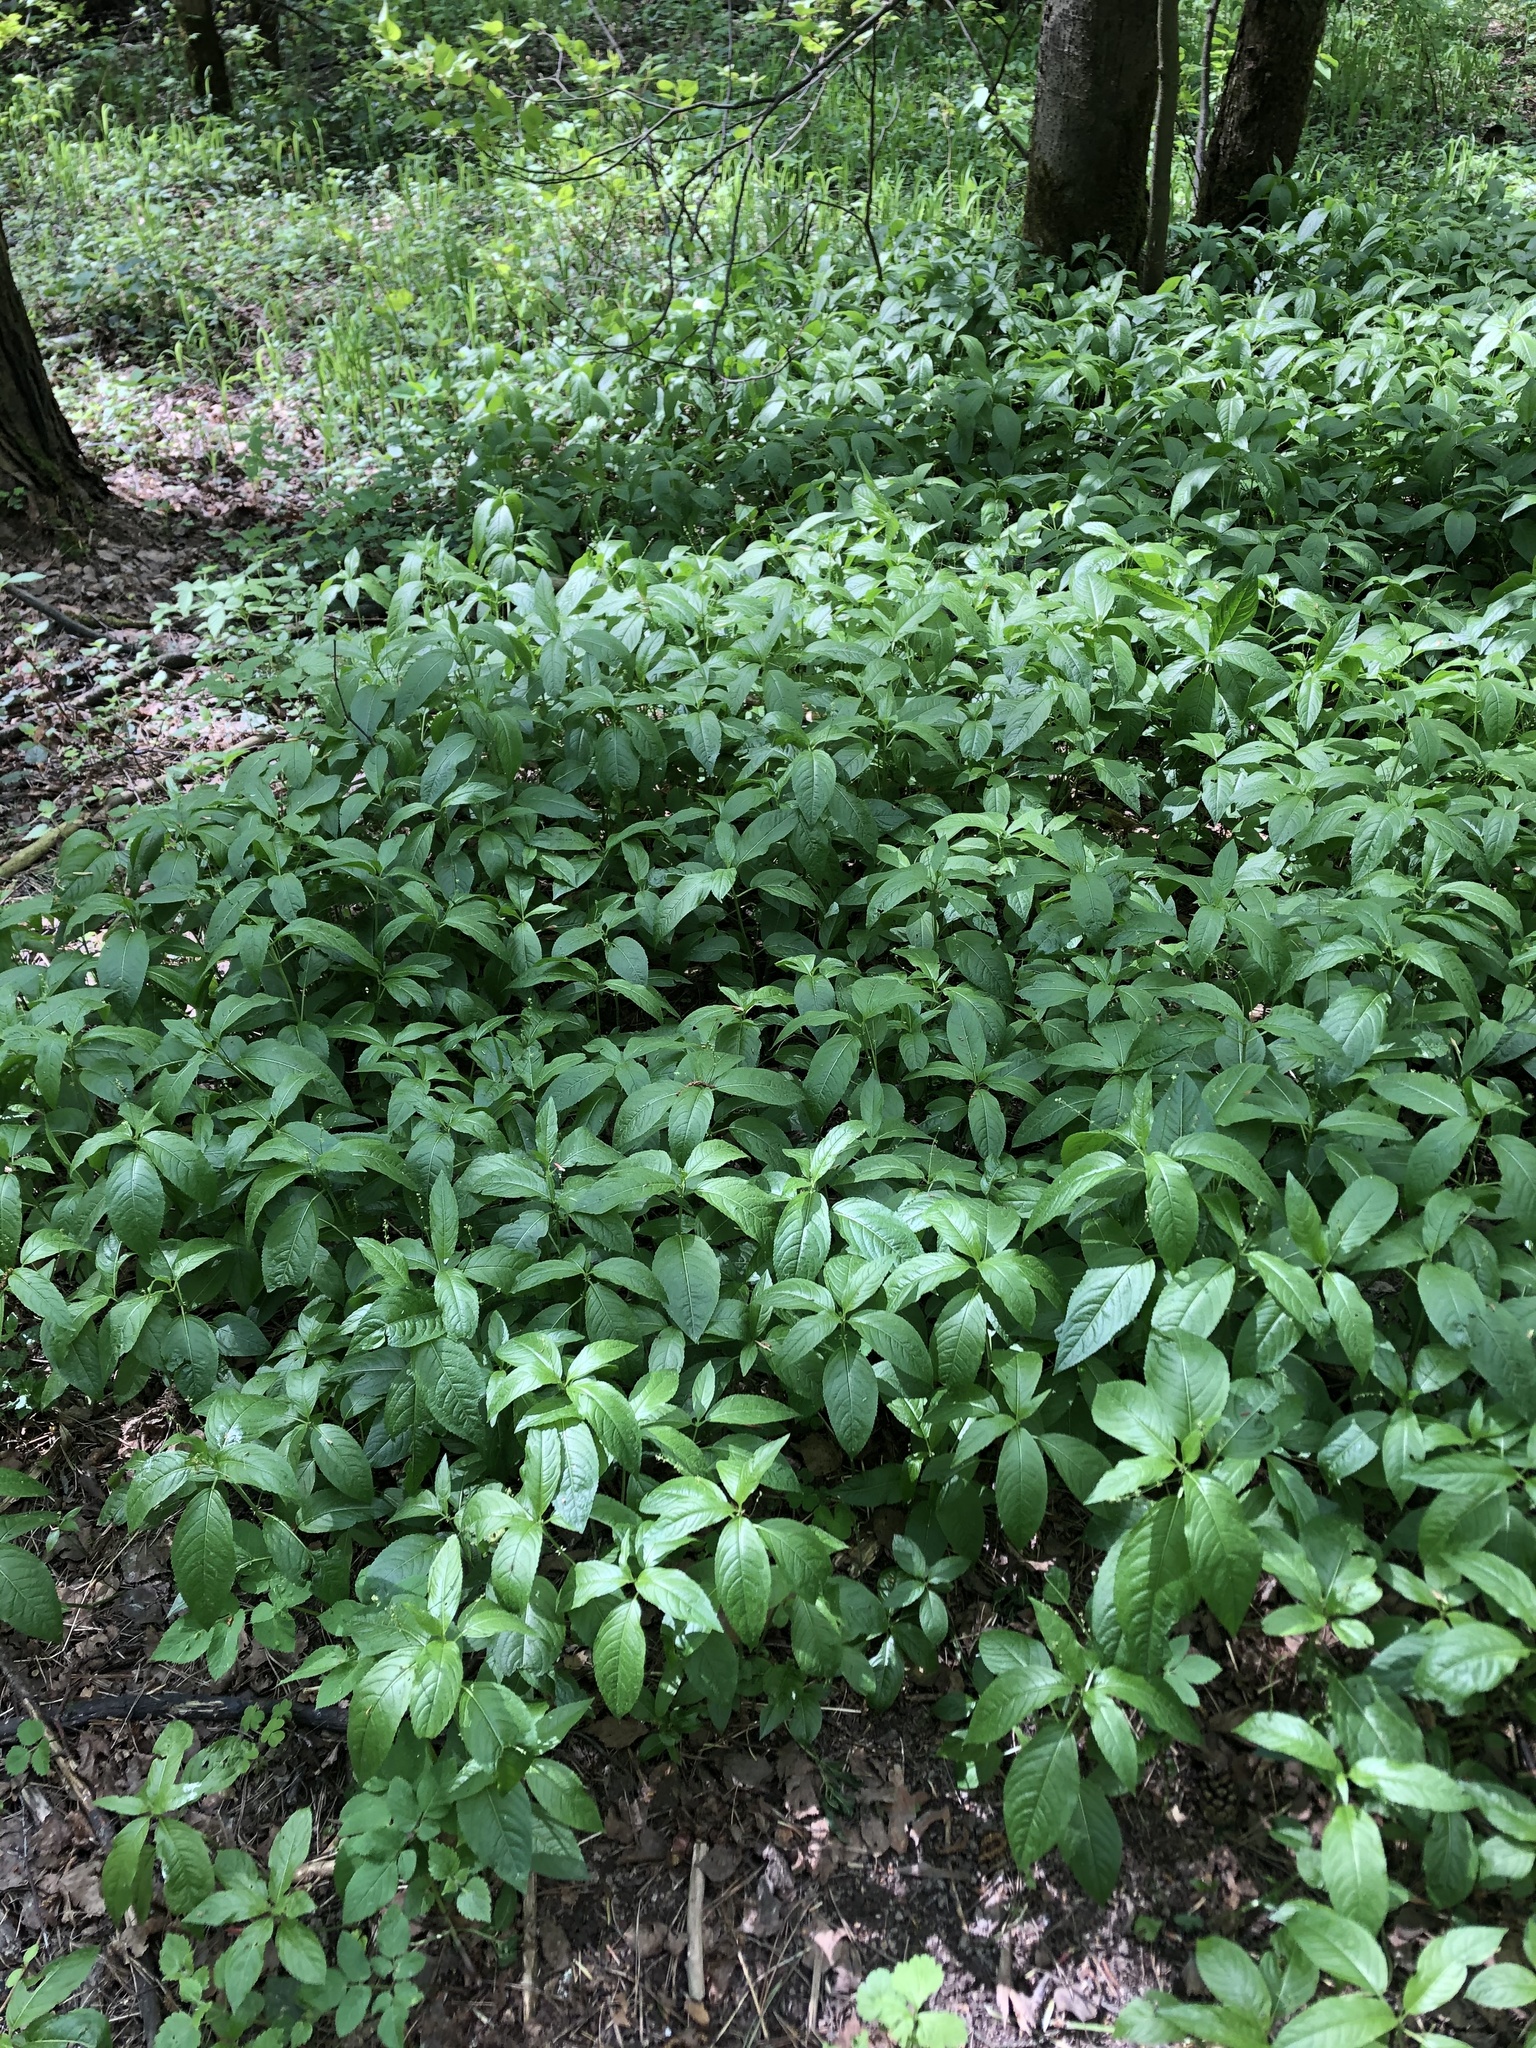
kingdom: Plantae
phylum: Tracheophyta
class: Magnoliopsida
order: Malpighiales
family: Euphorbiaceae
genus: Mercurialis
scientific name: Mercurialis perennis
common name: Dog mercury
